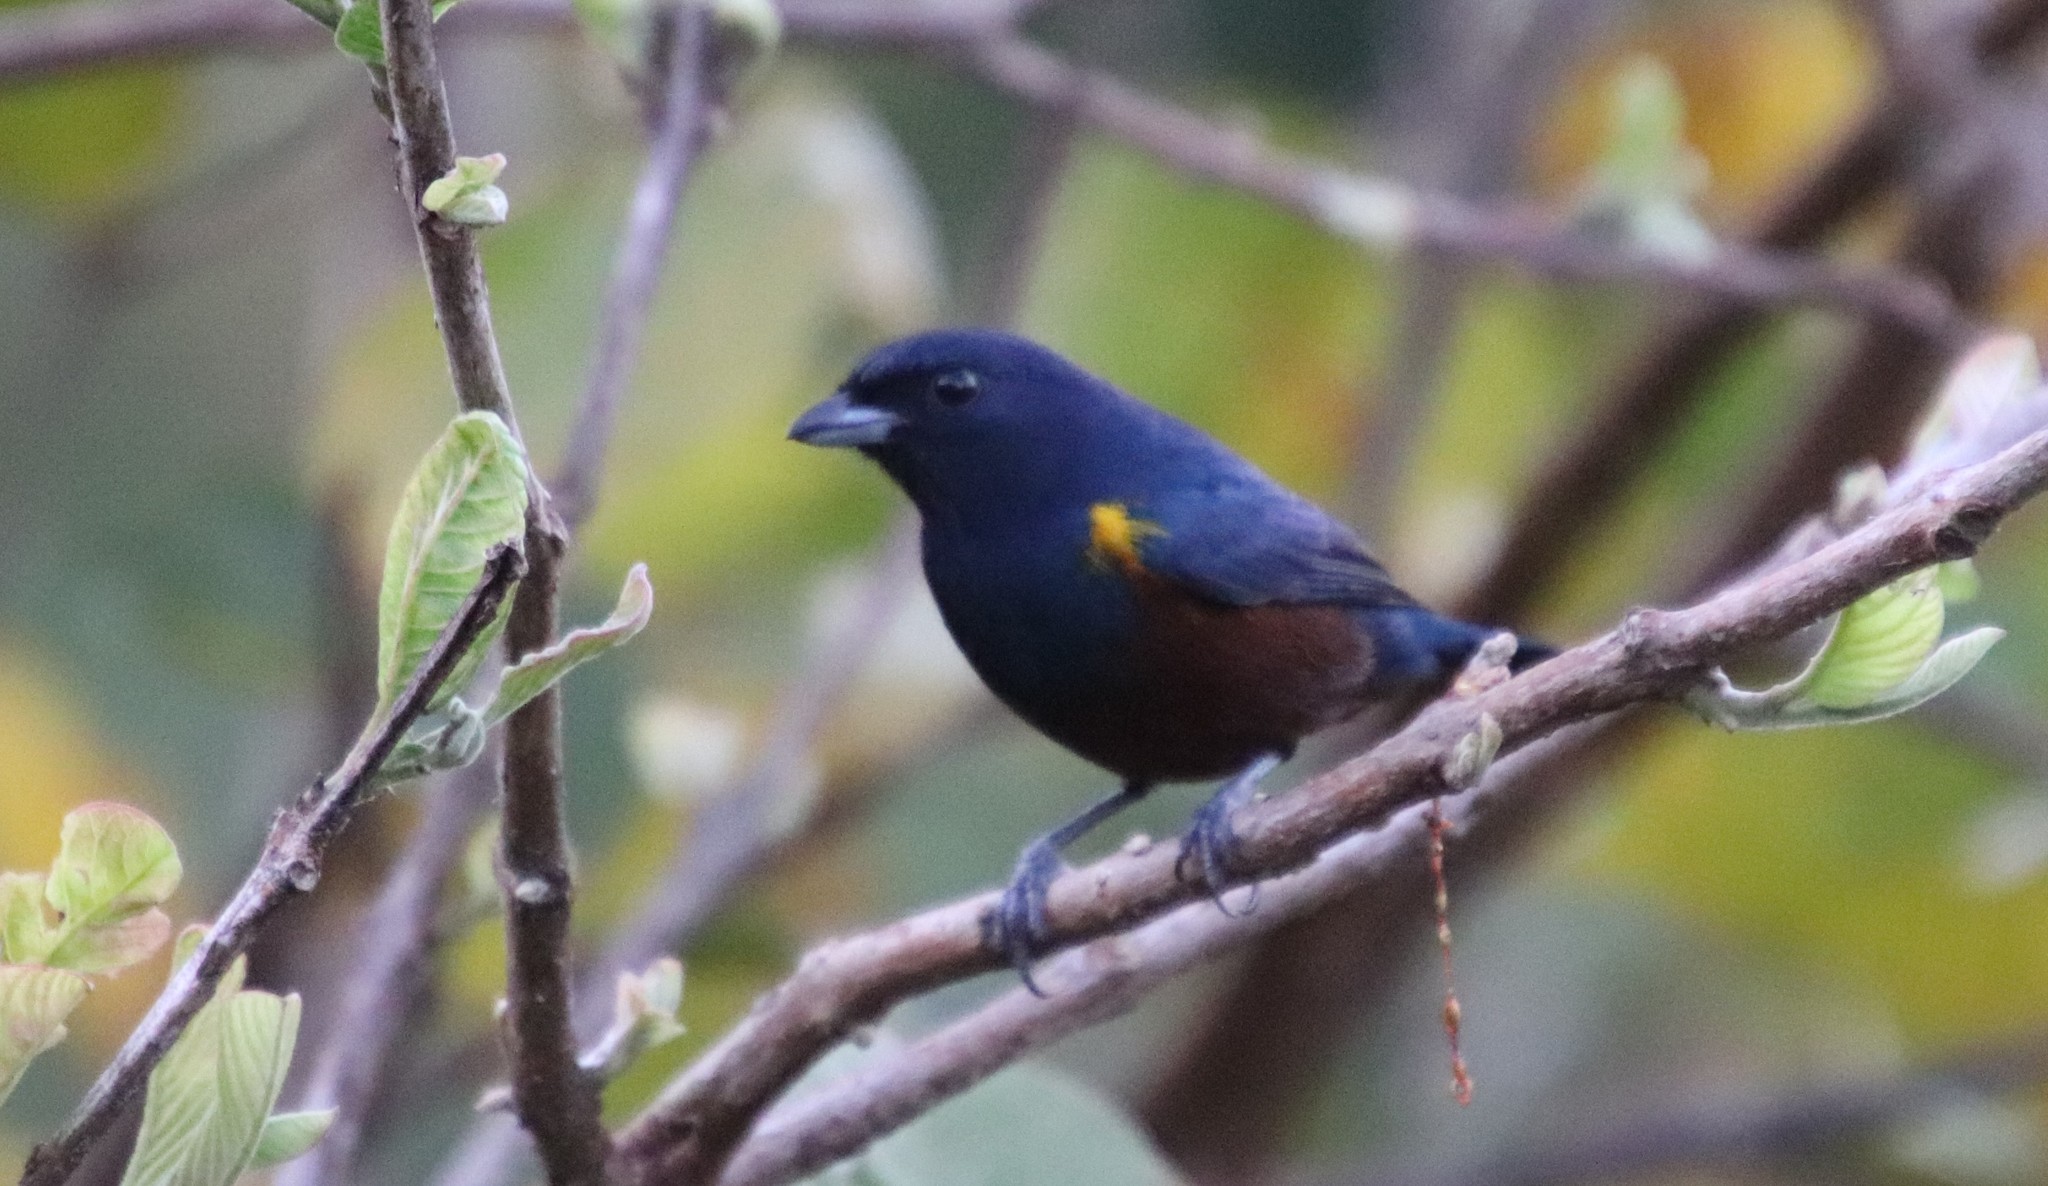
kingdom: Animalia
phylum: Chordata
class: Aves
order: Passeriformes
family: Fringillidae
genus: Euphonia
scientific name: Euphonia pectoralis
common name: Chestnut-bellied euphonia
